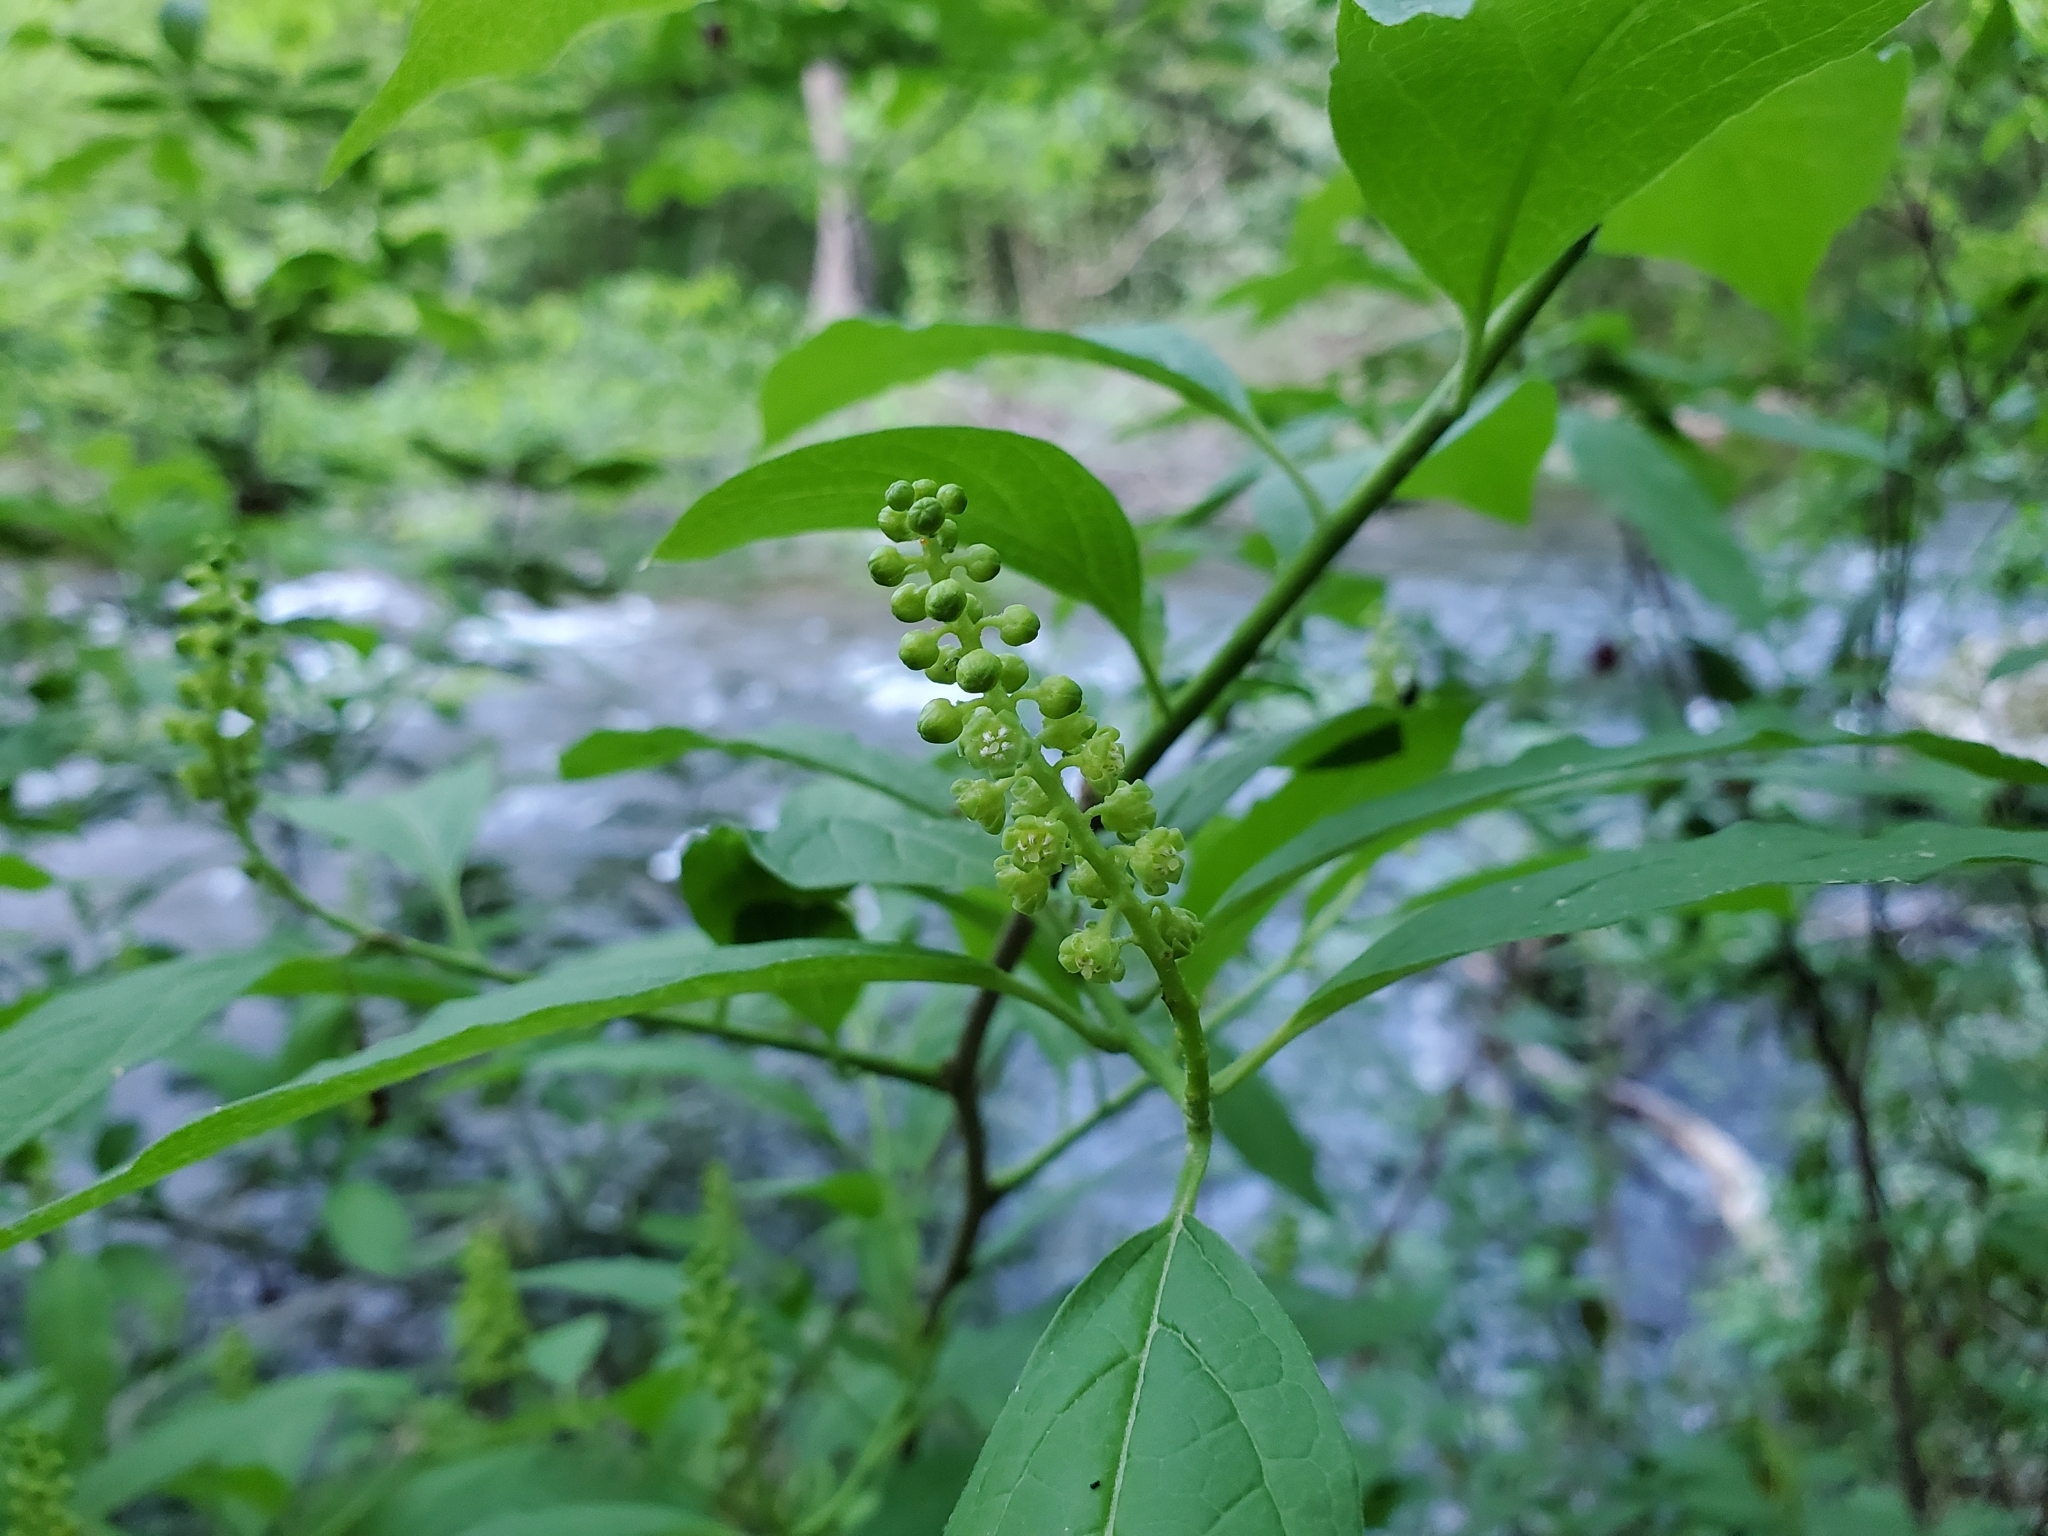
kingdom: Plantae
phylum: Tracheophyta
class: Magnoliopsida
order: Santalales
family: Cervantesiaceae
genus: Pyrularia
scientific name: Pyrularia pubera
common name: Oilnut
